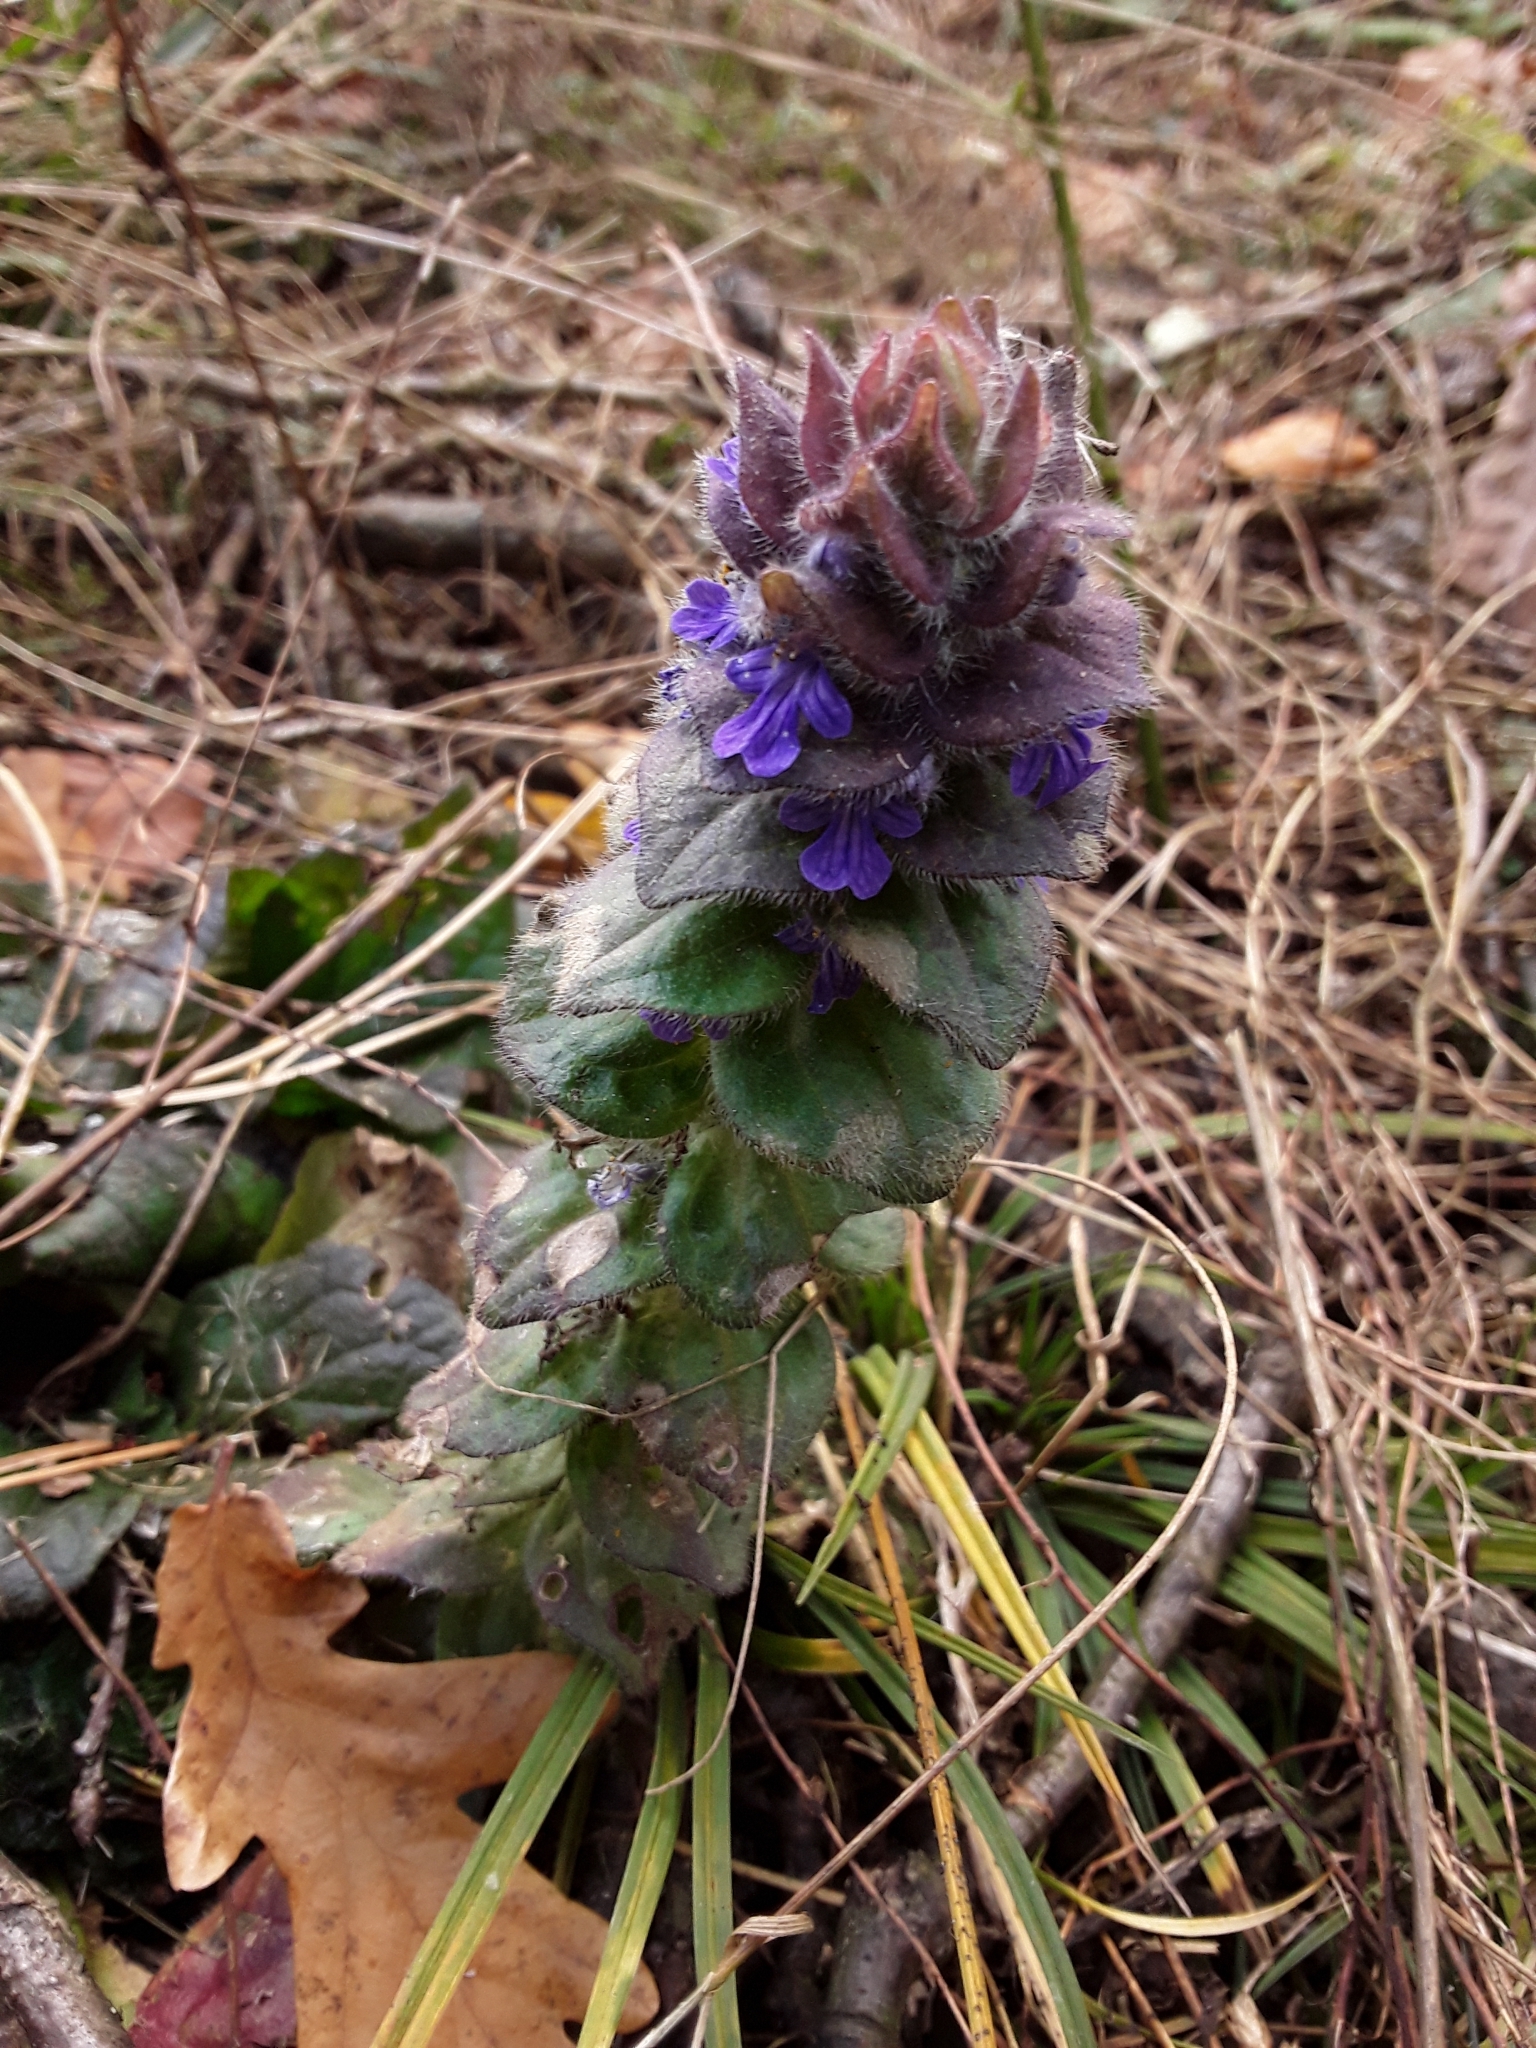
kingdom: Plantae
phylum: Tracheophyta
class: Magnoliopsida
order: Lamiales
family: Lamiaceae
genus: Ajuga
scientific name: Ajuga pyramidalis
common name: Pyramid bugle
